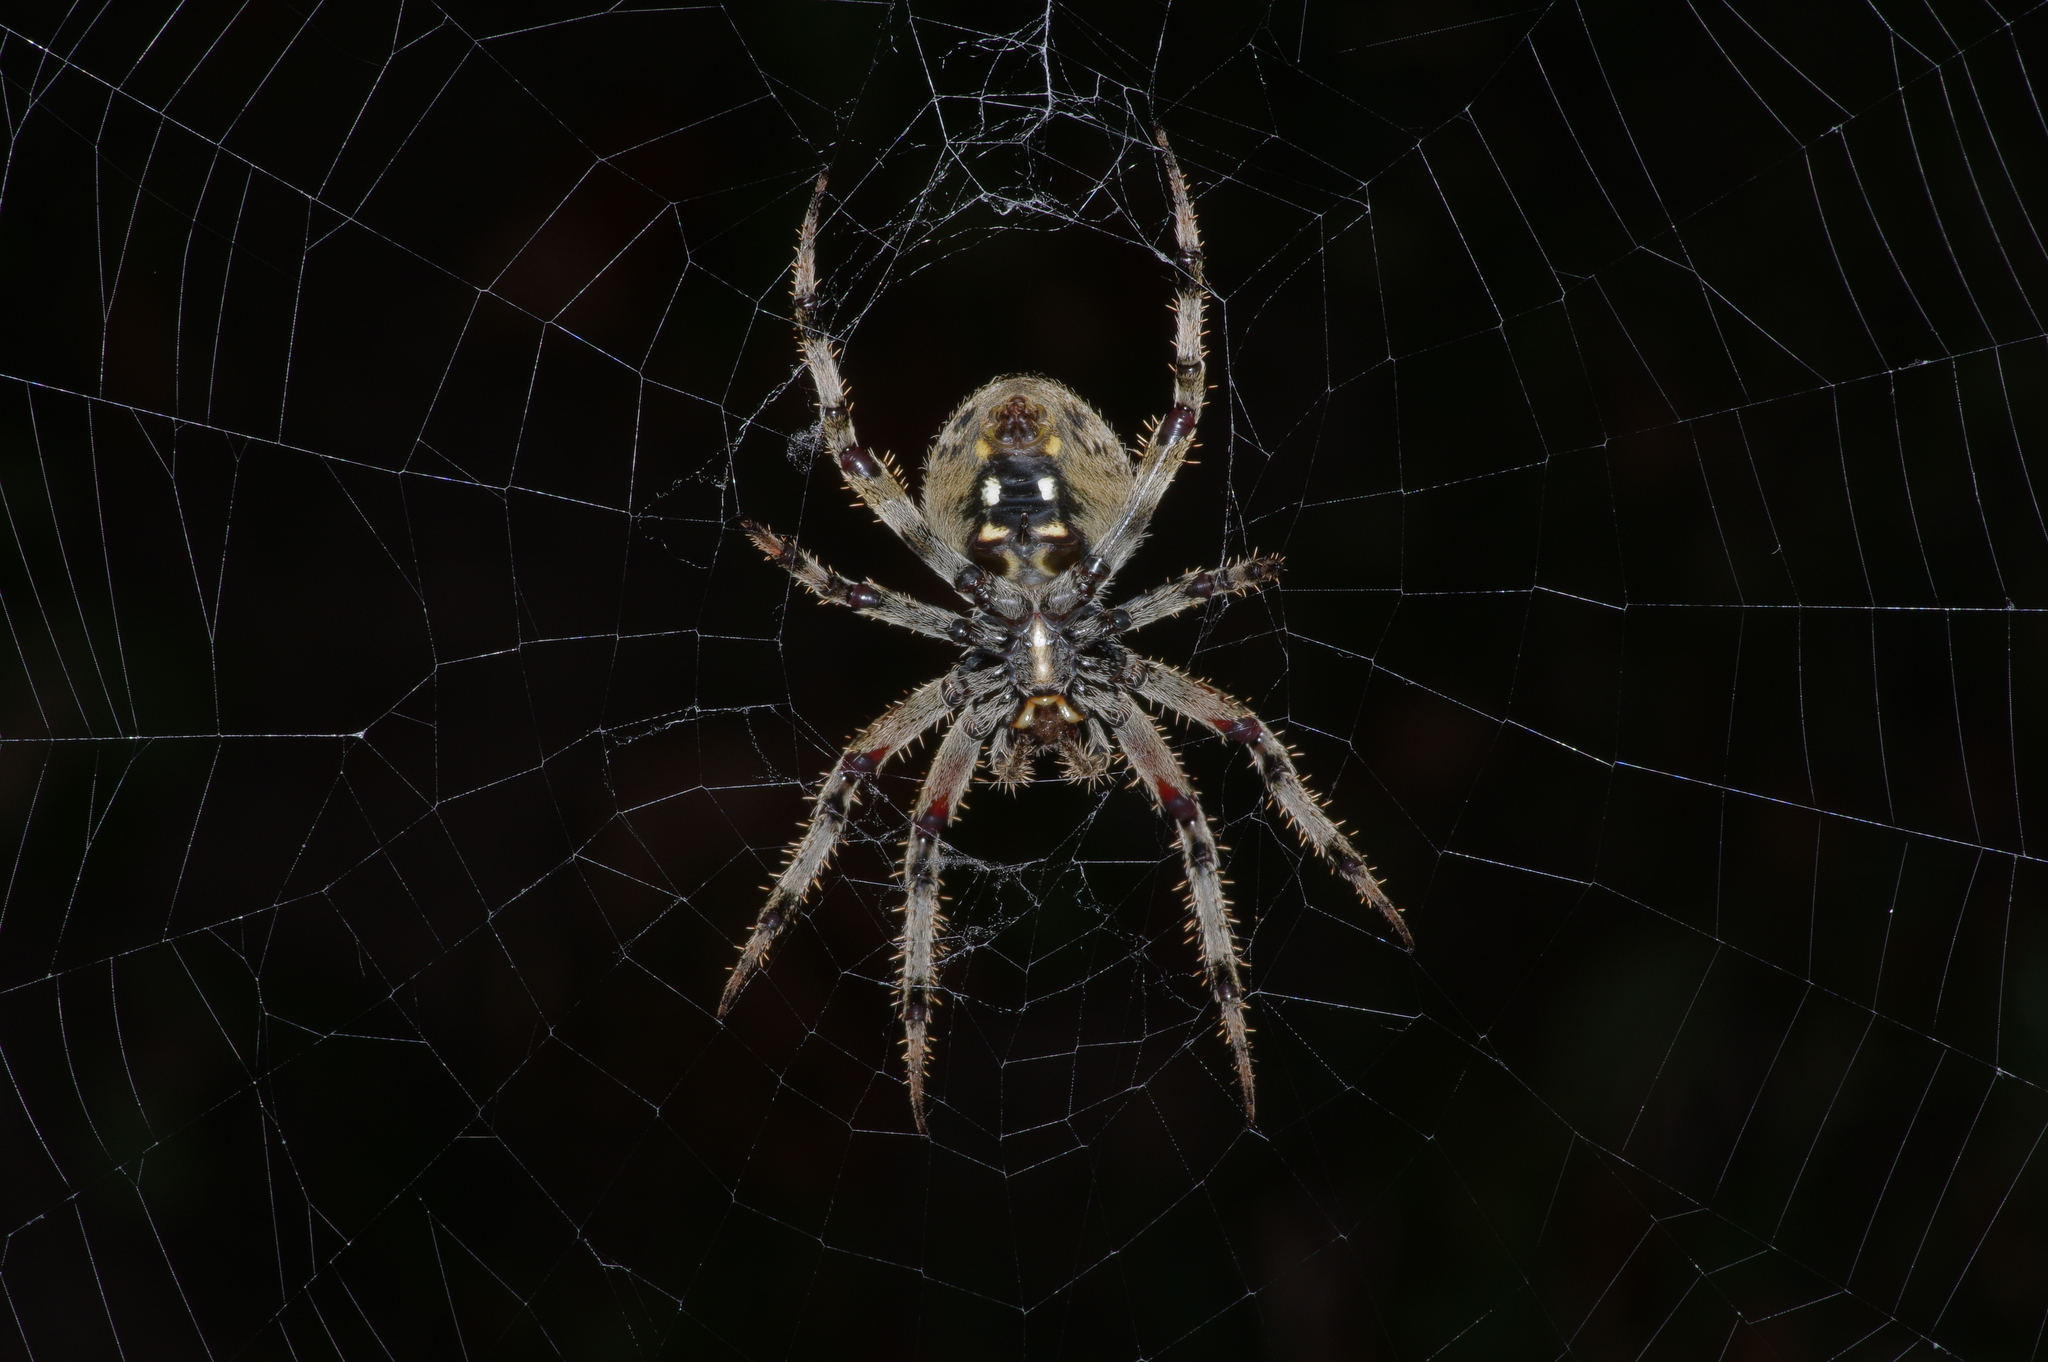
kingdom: Animalia
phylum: Arthropoda
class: Arachnida
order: Araneae
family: Araneidae
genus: Neoscona
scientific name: Neoscona crucifera
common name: Spotted orbweaver
